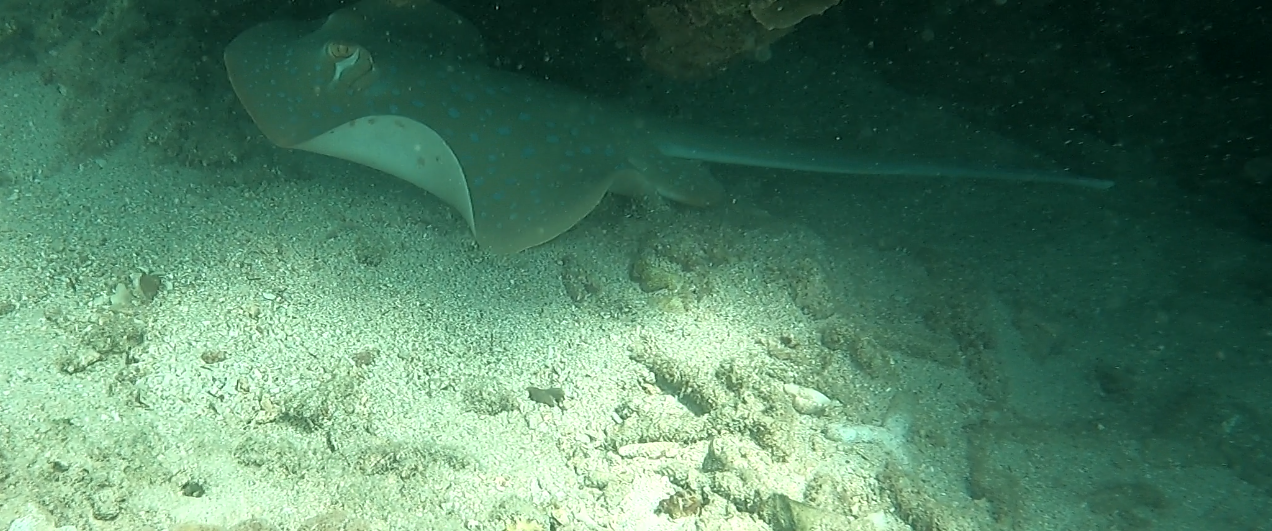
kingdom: Animalia
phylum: Chordata
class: Elasmobranchii
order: Myliobatiformes
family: Dasyatidae
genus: Taeniura
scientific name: Taeniura lymma
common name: Bluespotted ribbontail ray
